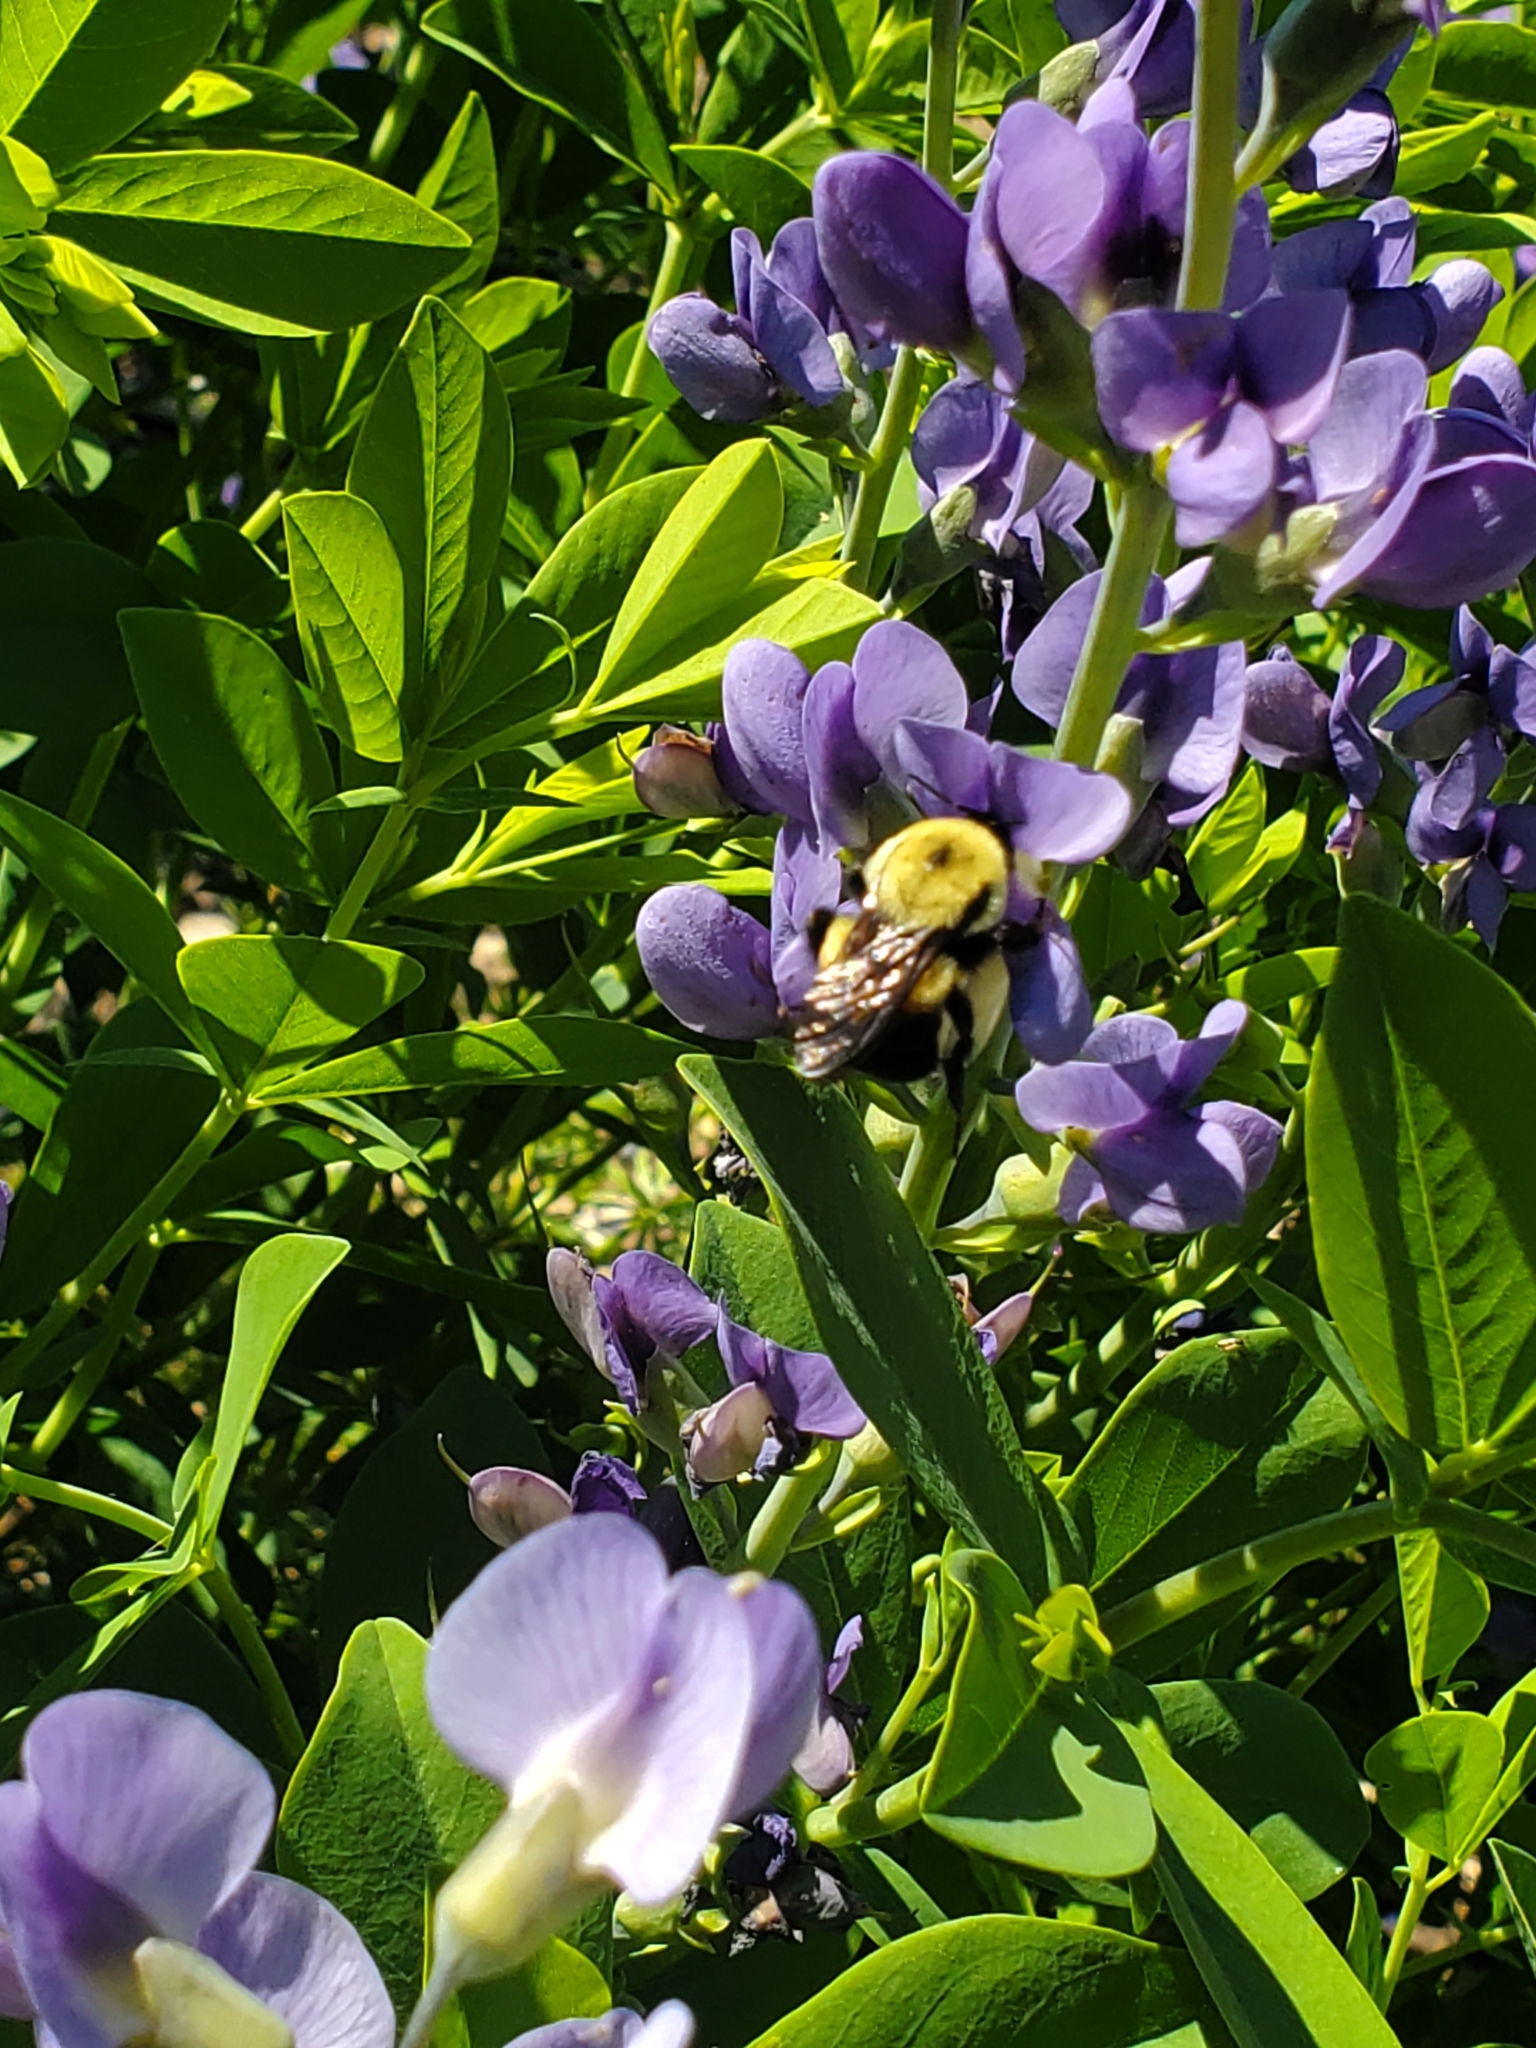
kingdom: Animalia
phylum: Arthropoda
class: Insecta
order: Hymenoptera
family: Apidae
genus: Bombus
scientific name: Bombus griseocollis
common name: Brown-belted bumble bee
